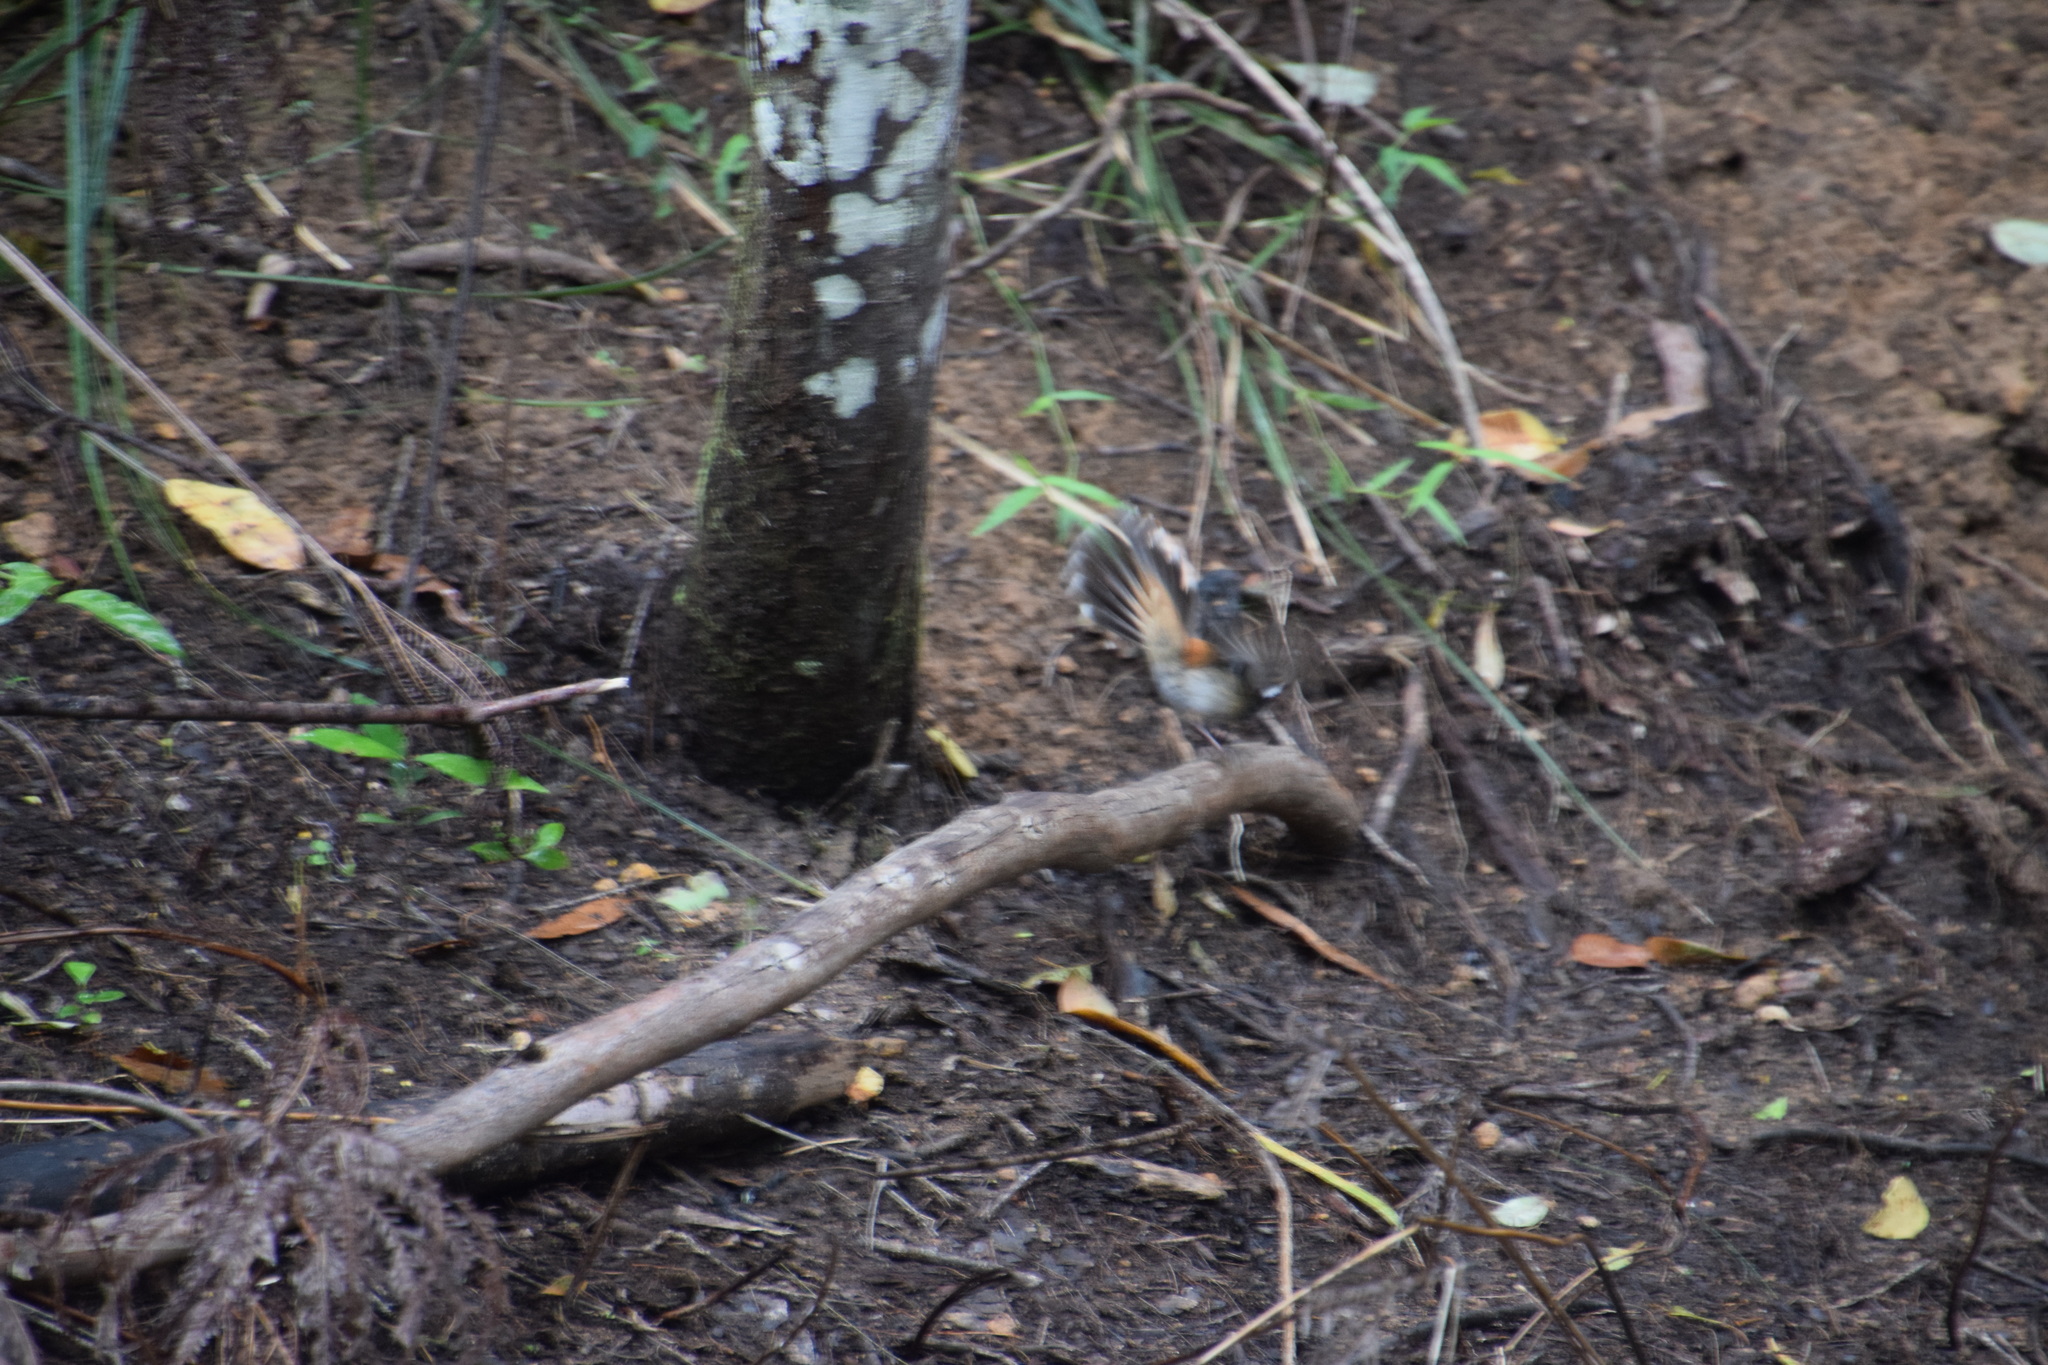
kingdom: Animalia
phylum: Chordata
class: Aves
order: Passeriformes
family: Rhipiduridae
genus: Rhipidura
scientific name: Rhipidura rufifrons
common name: Rufous fantail
